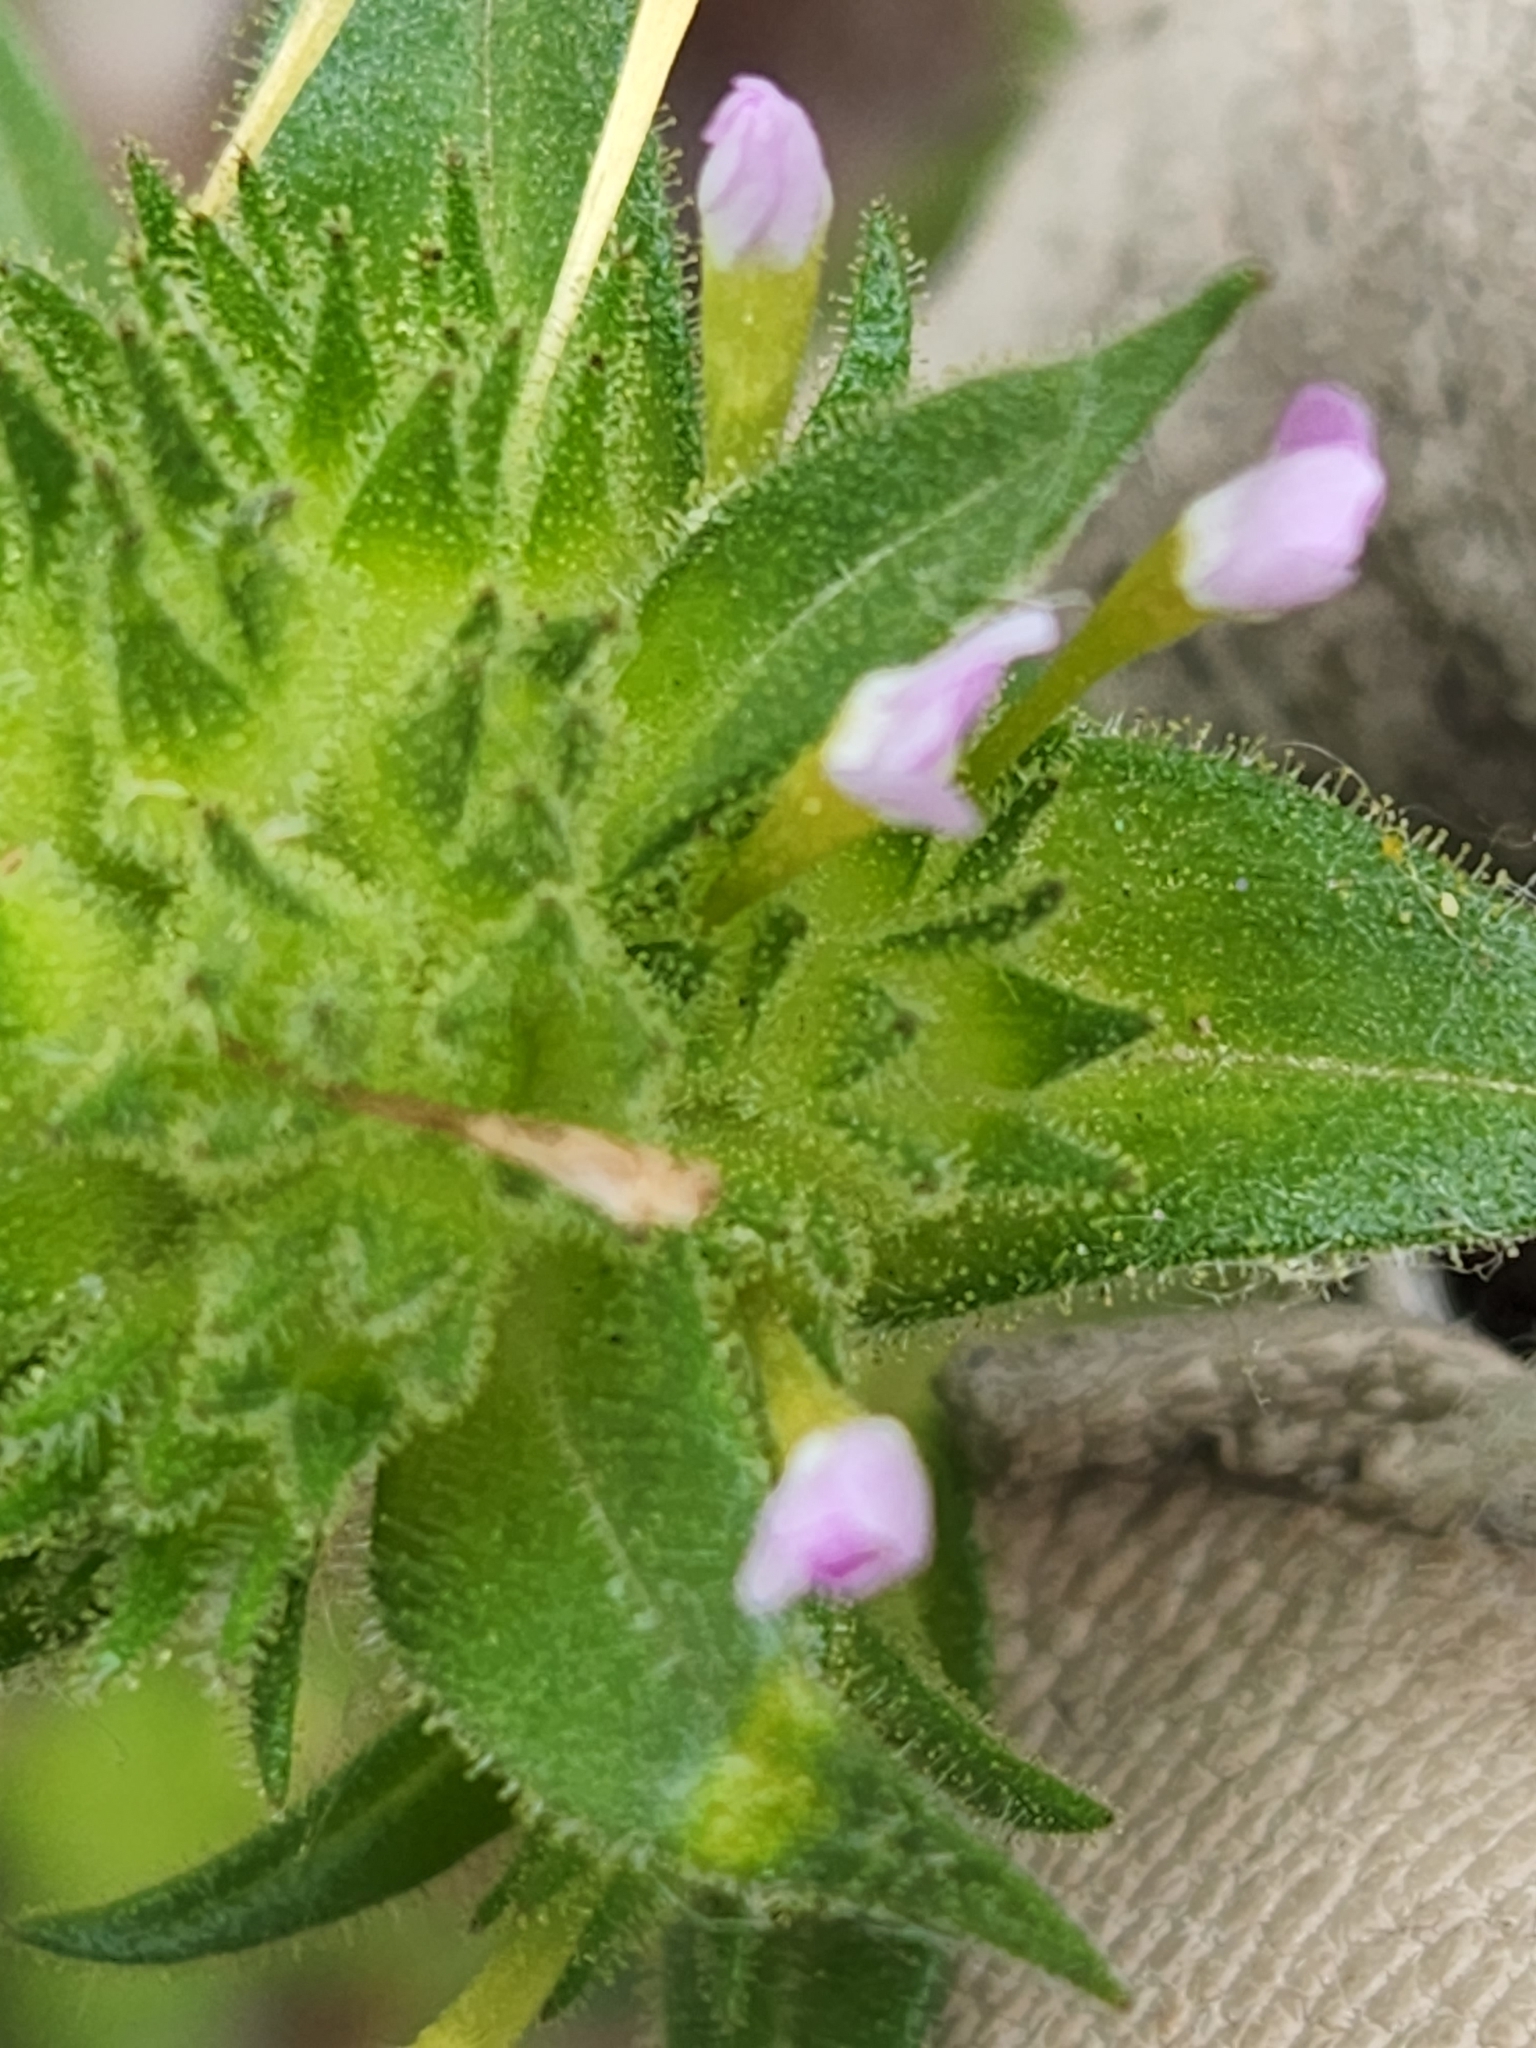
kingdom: Plantae
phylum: Tracheophyta
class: Magnoliopsida
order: Ericales
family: Polemoniaceae
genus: Collomia
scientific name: Collomia linearis
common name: Tiny trumpet
